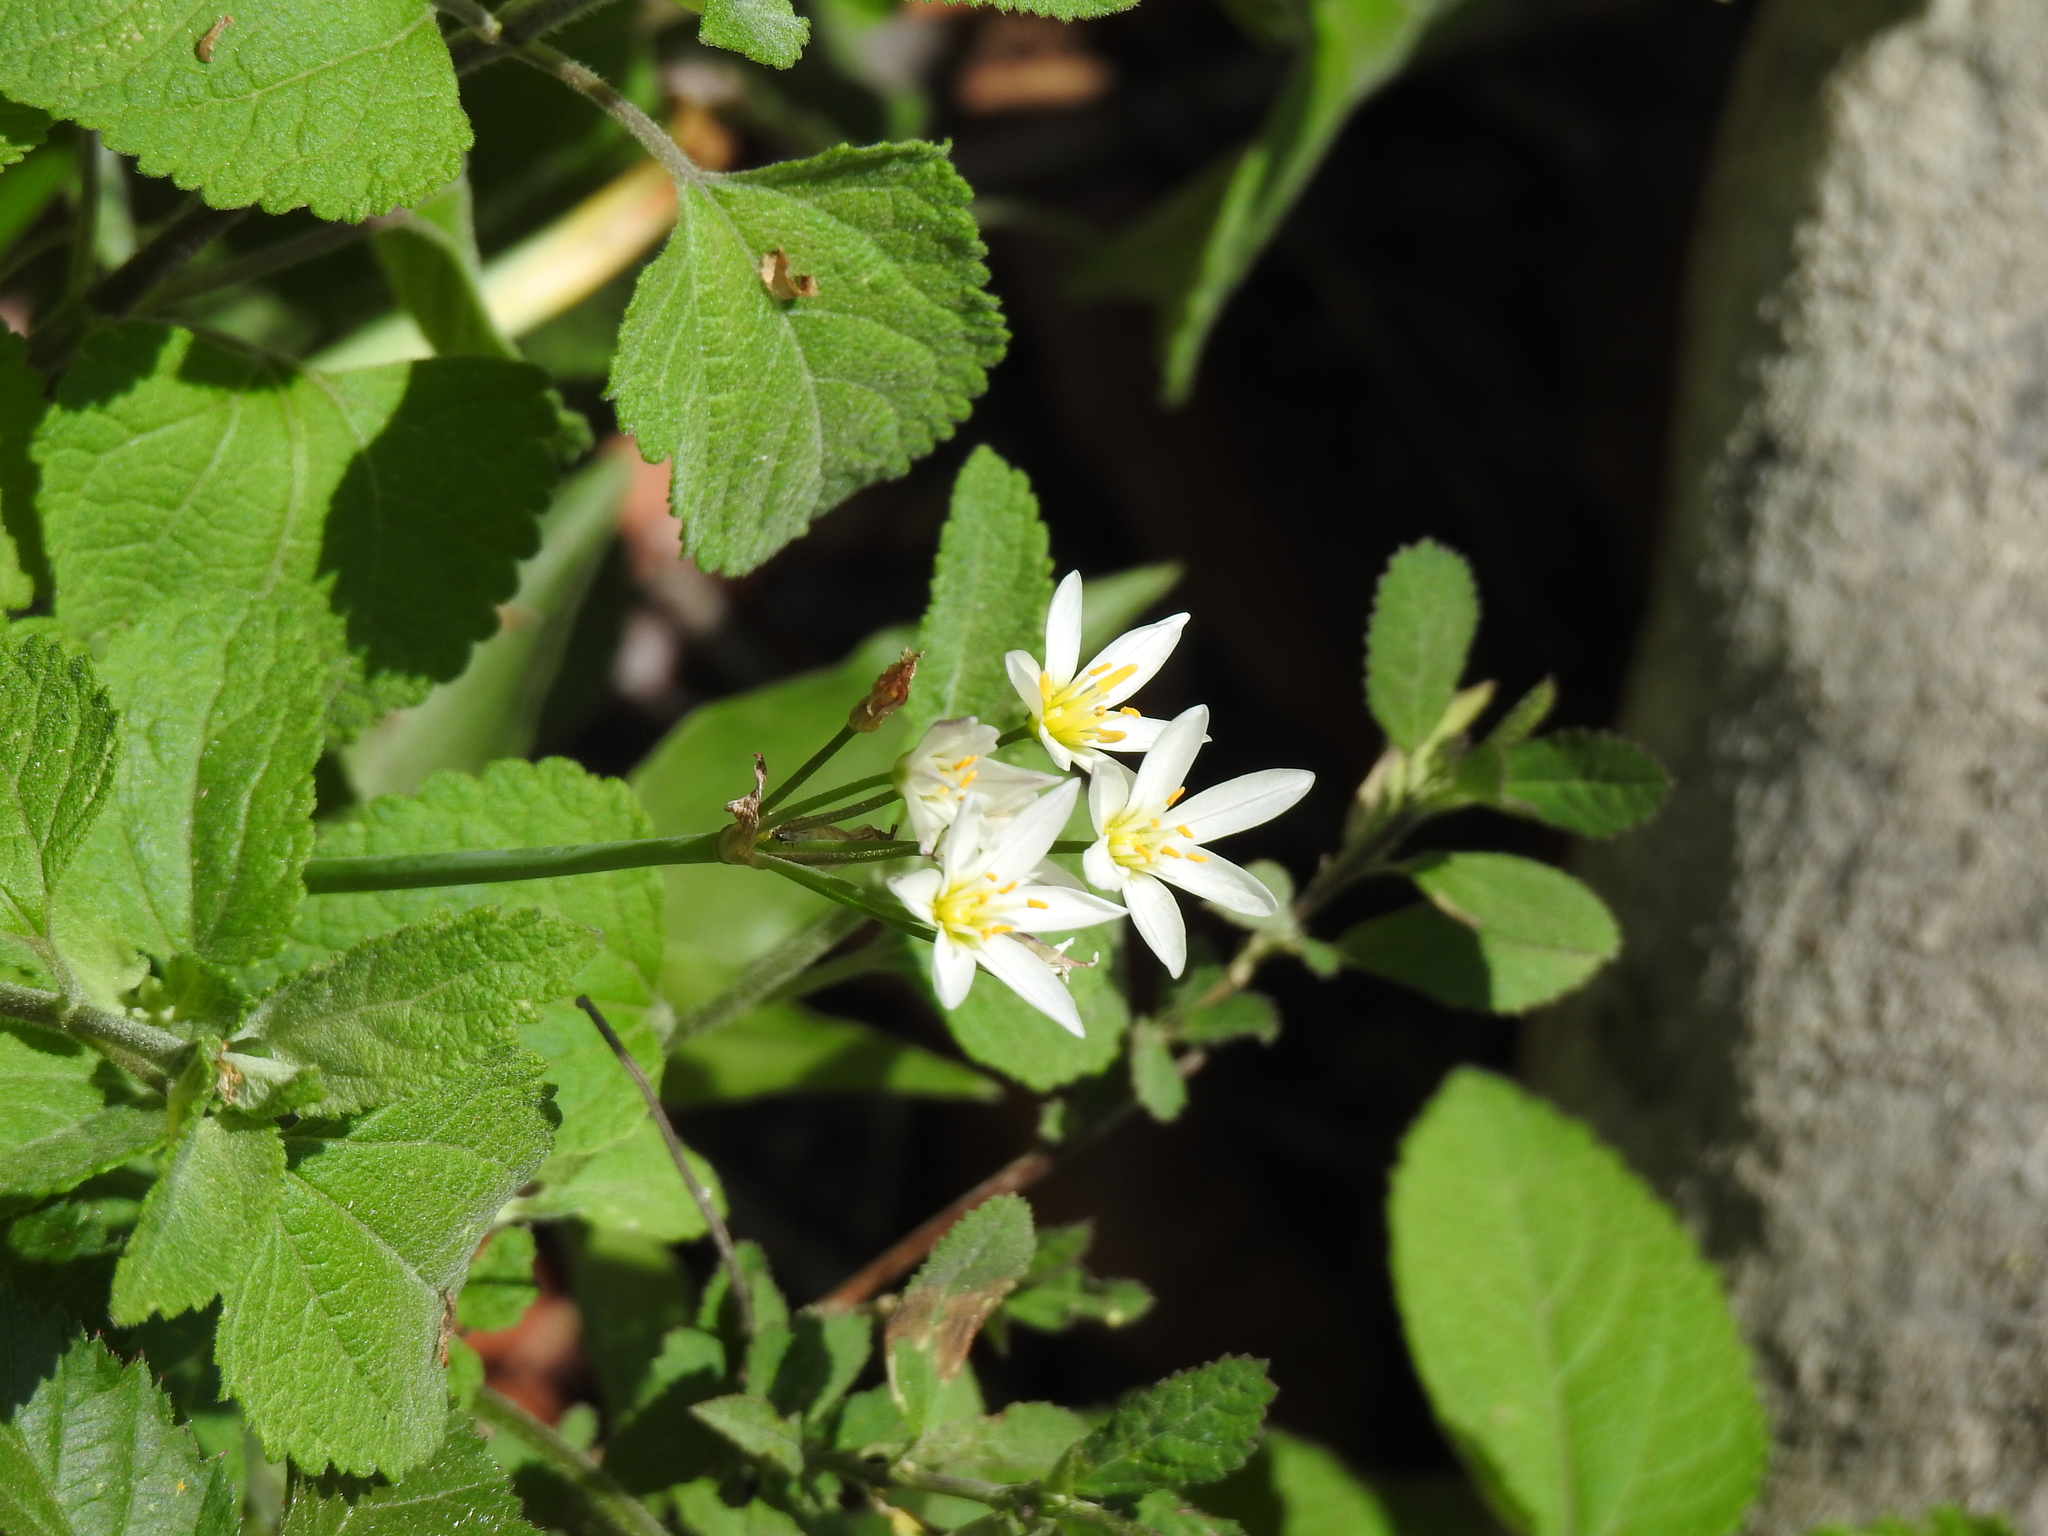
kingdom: Plantae
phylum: Tracheophyta
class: Liliopsida
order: Asparagales
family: Amaryllidaceae
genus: Nothoscordum
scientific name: Nothoscordum bivalve
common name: Crow-poison
